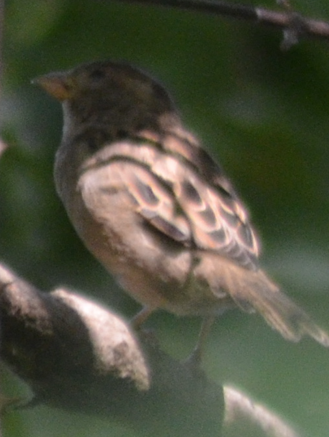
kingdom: Animalia
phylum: Chordata
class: Aves
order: Passeriformes
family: Passeridae
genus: Passer
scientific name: Passer domesticus
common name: House sparrow
